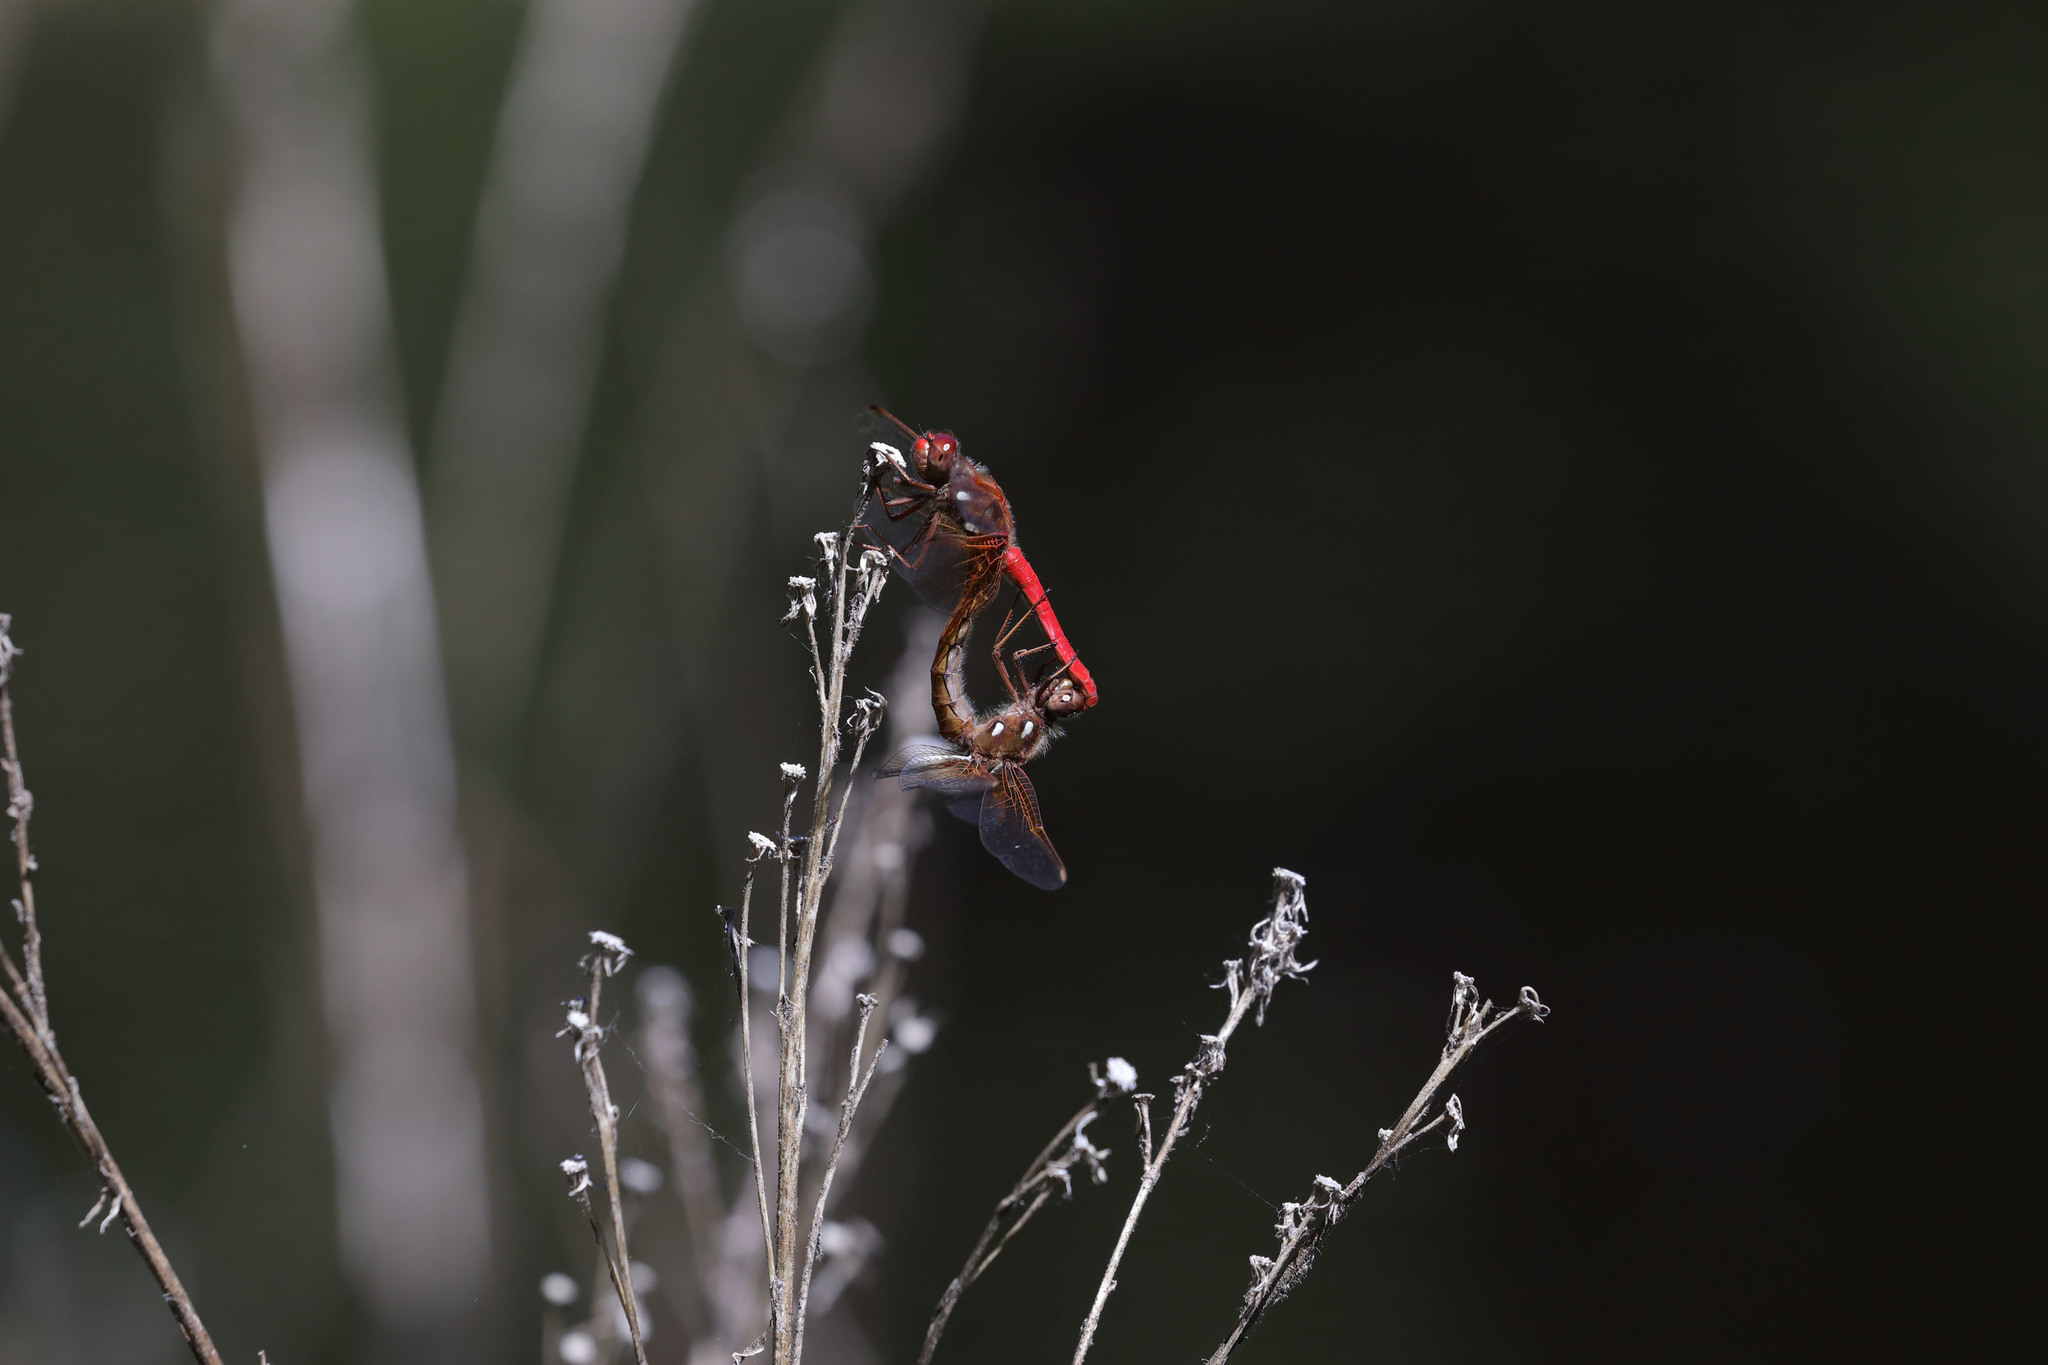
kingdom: Animalia
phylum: Arthropoda
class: Insecta
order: Odonata
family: Libellulidae
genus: Sympetrum
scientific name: Sympetrum illotum
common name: Cardinal meadowhawk
